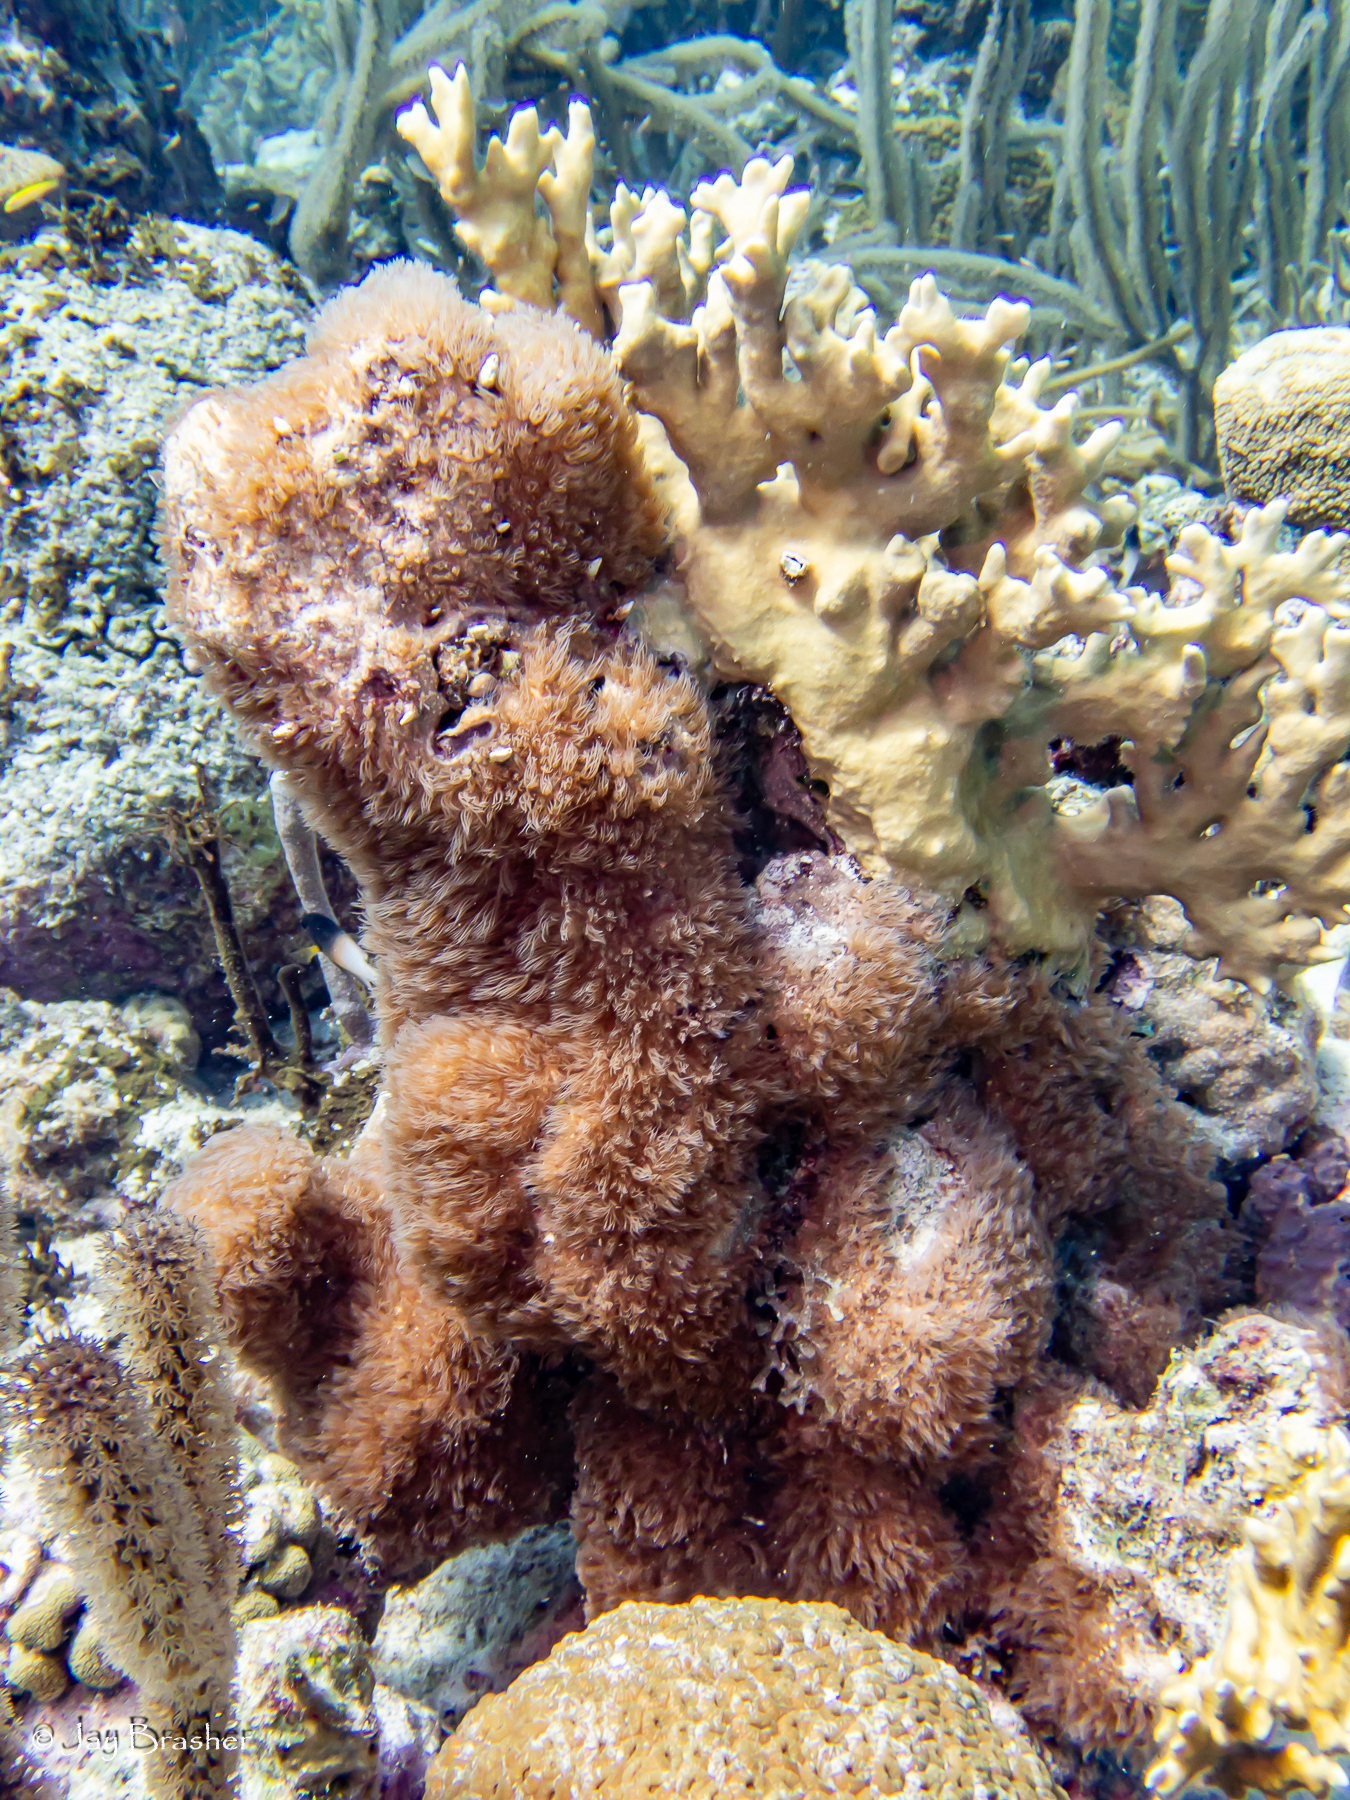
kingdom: Animalia
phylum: Cnidaria
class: Hydrozoa
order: Anthoathecata
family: Milleporidae
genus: Millepora
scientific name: Millepora alcicornis
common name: Branching fire coral
